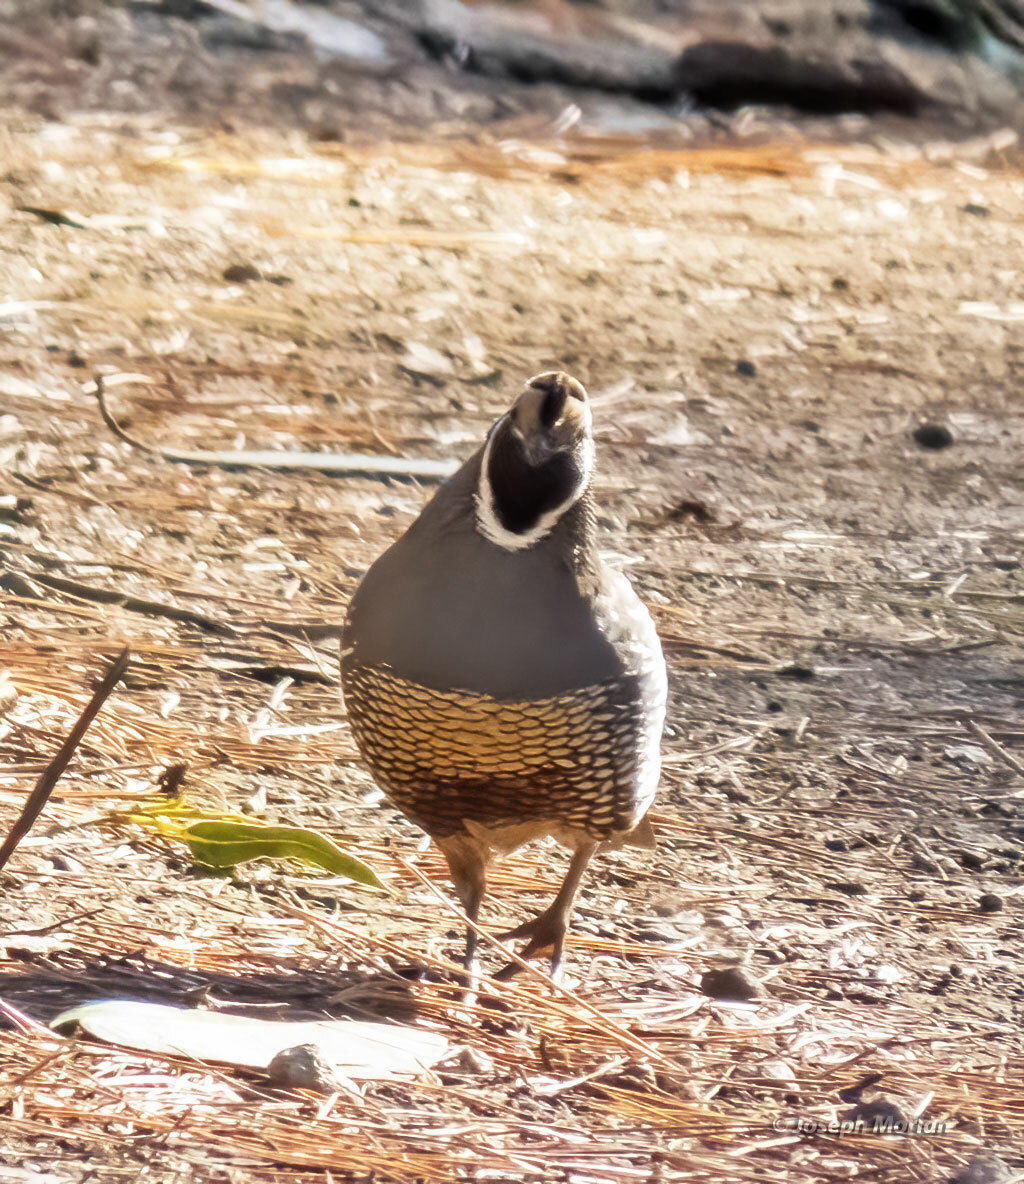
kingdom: Animalia
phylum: Chordata
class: Aves
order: Galliformes
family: Odontophoridae
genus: Callipepla
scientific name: Callipepla californica
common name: California quail
